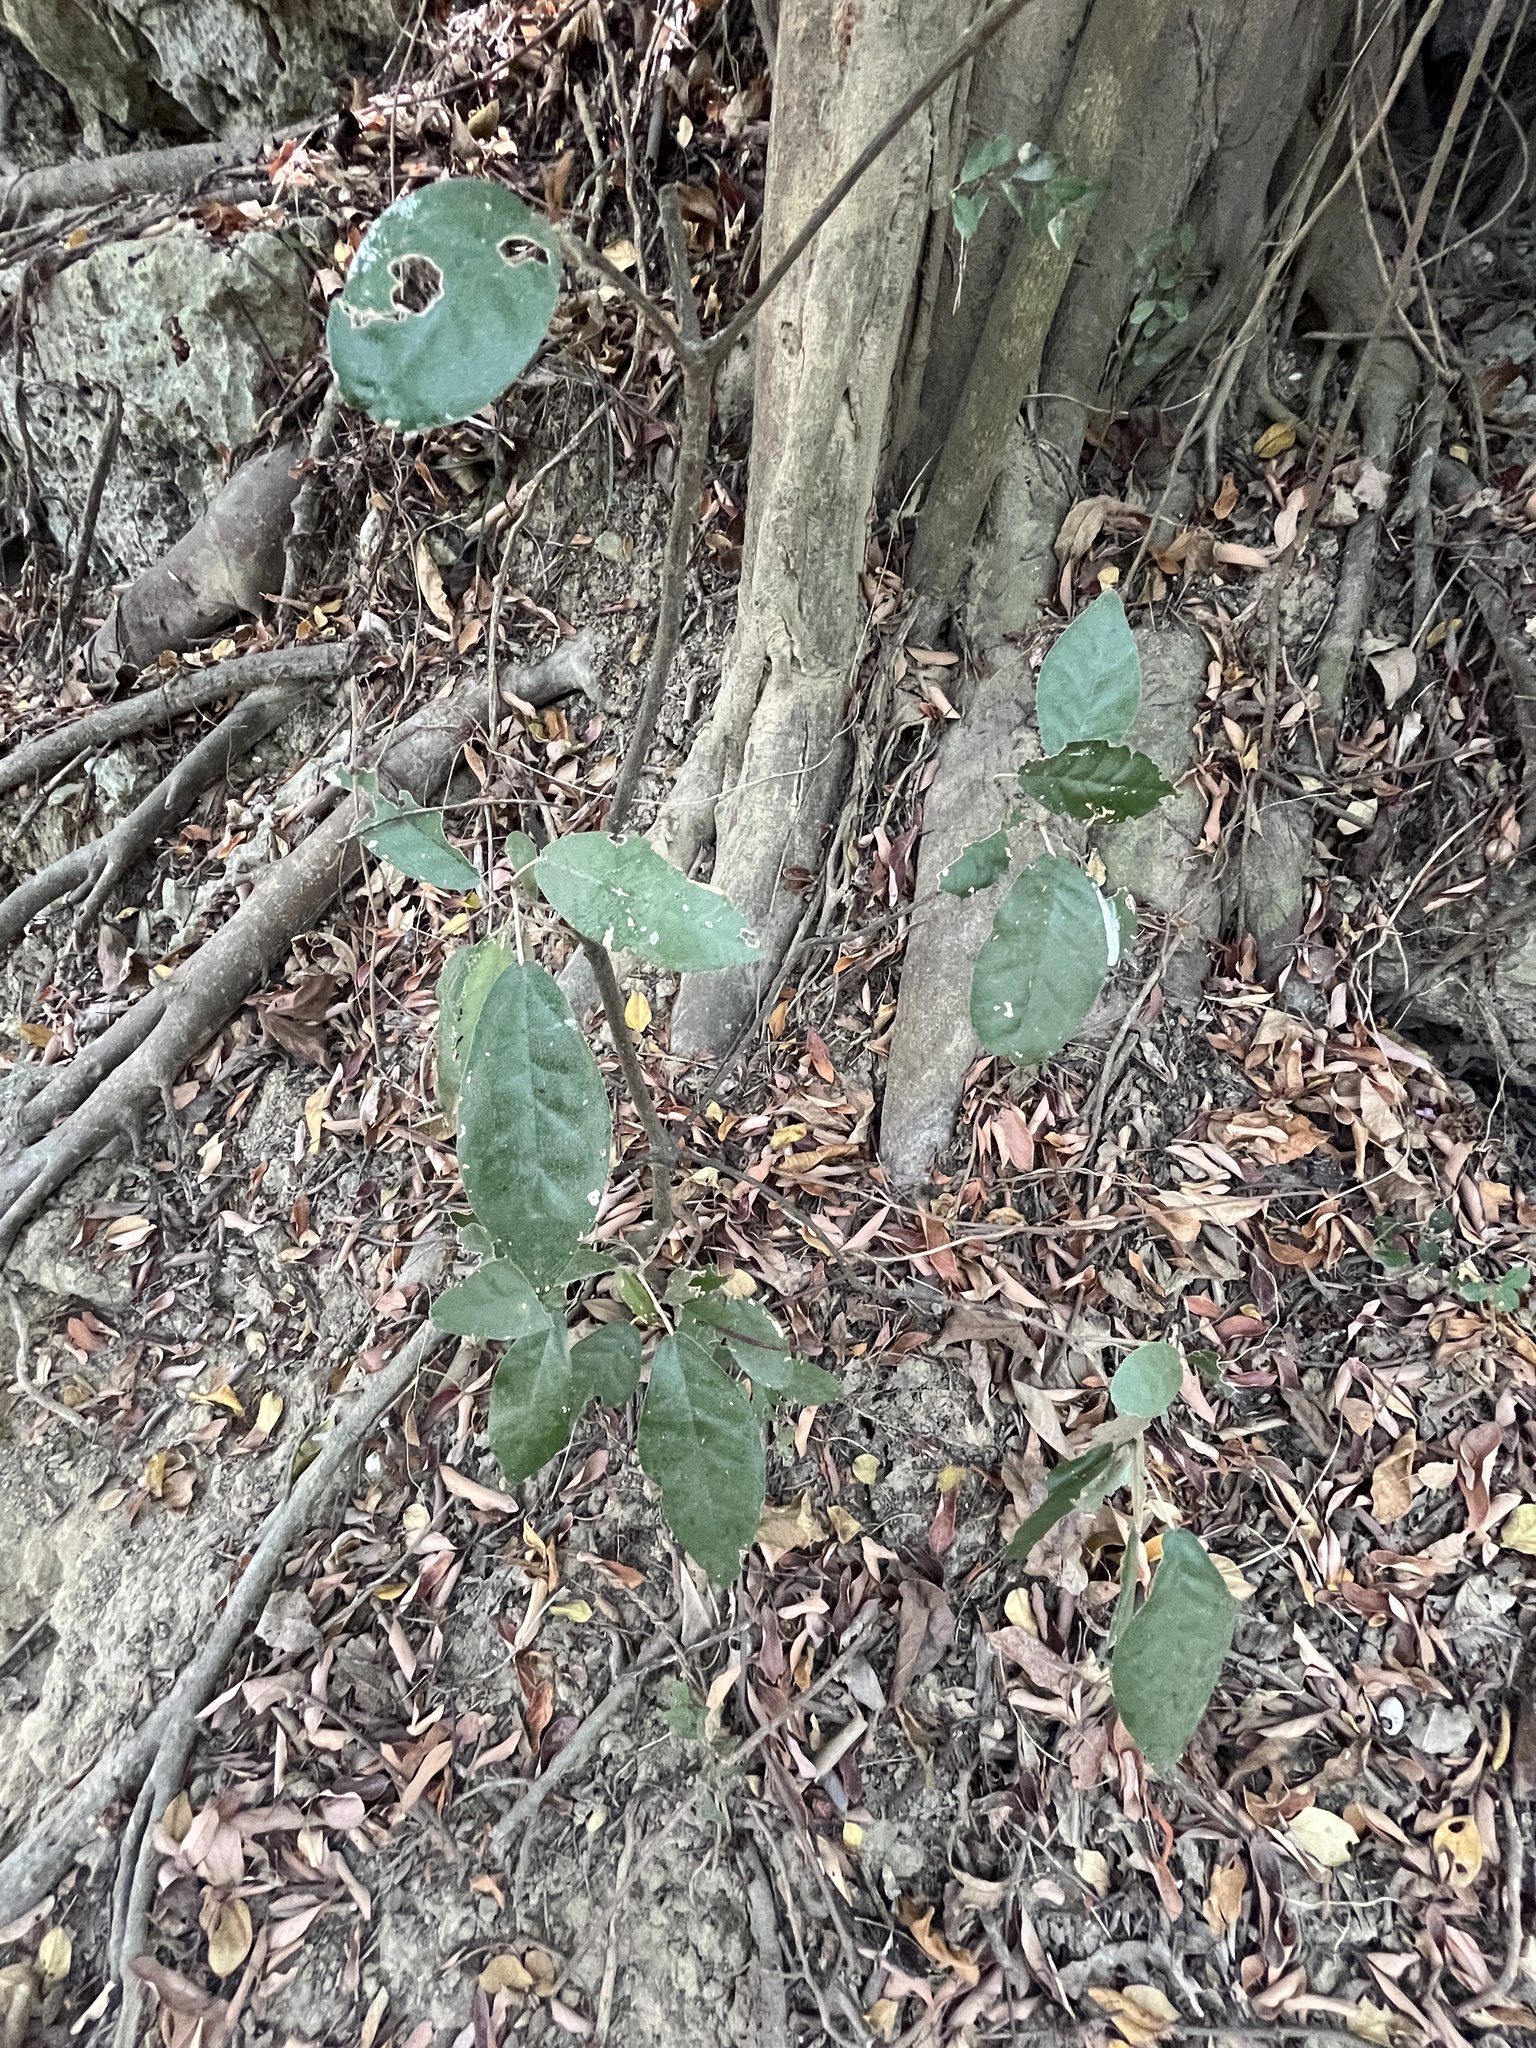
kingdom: Plantae
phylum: Tracheophyta
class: Magnoliopsida
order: Malvales
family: Malvaceae
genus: Sterculia
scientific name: Sterculia monosperma
